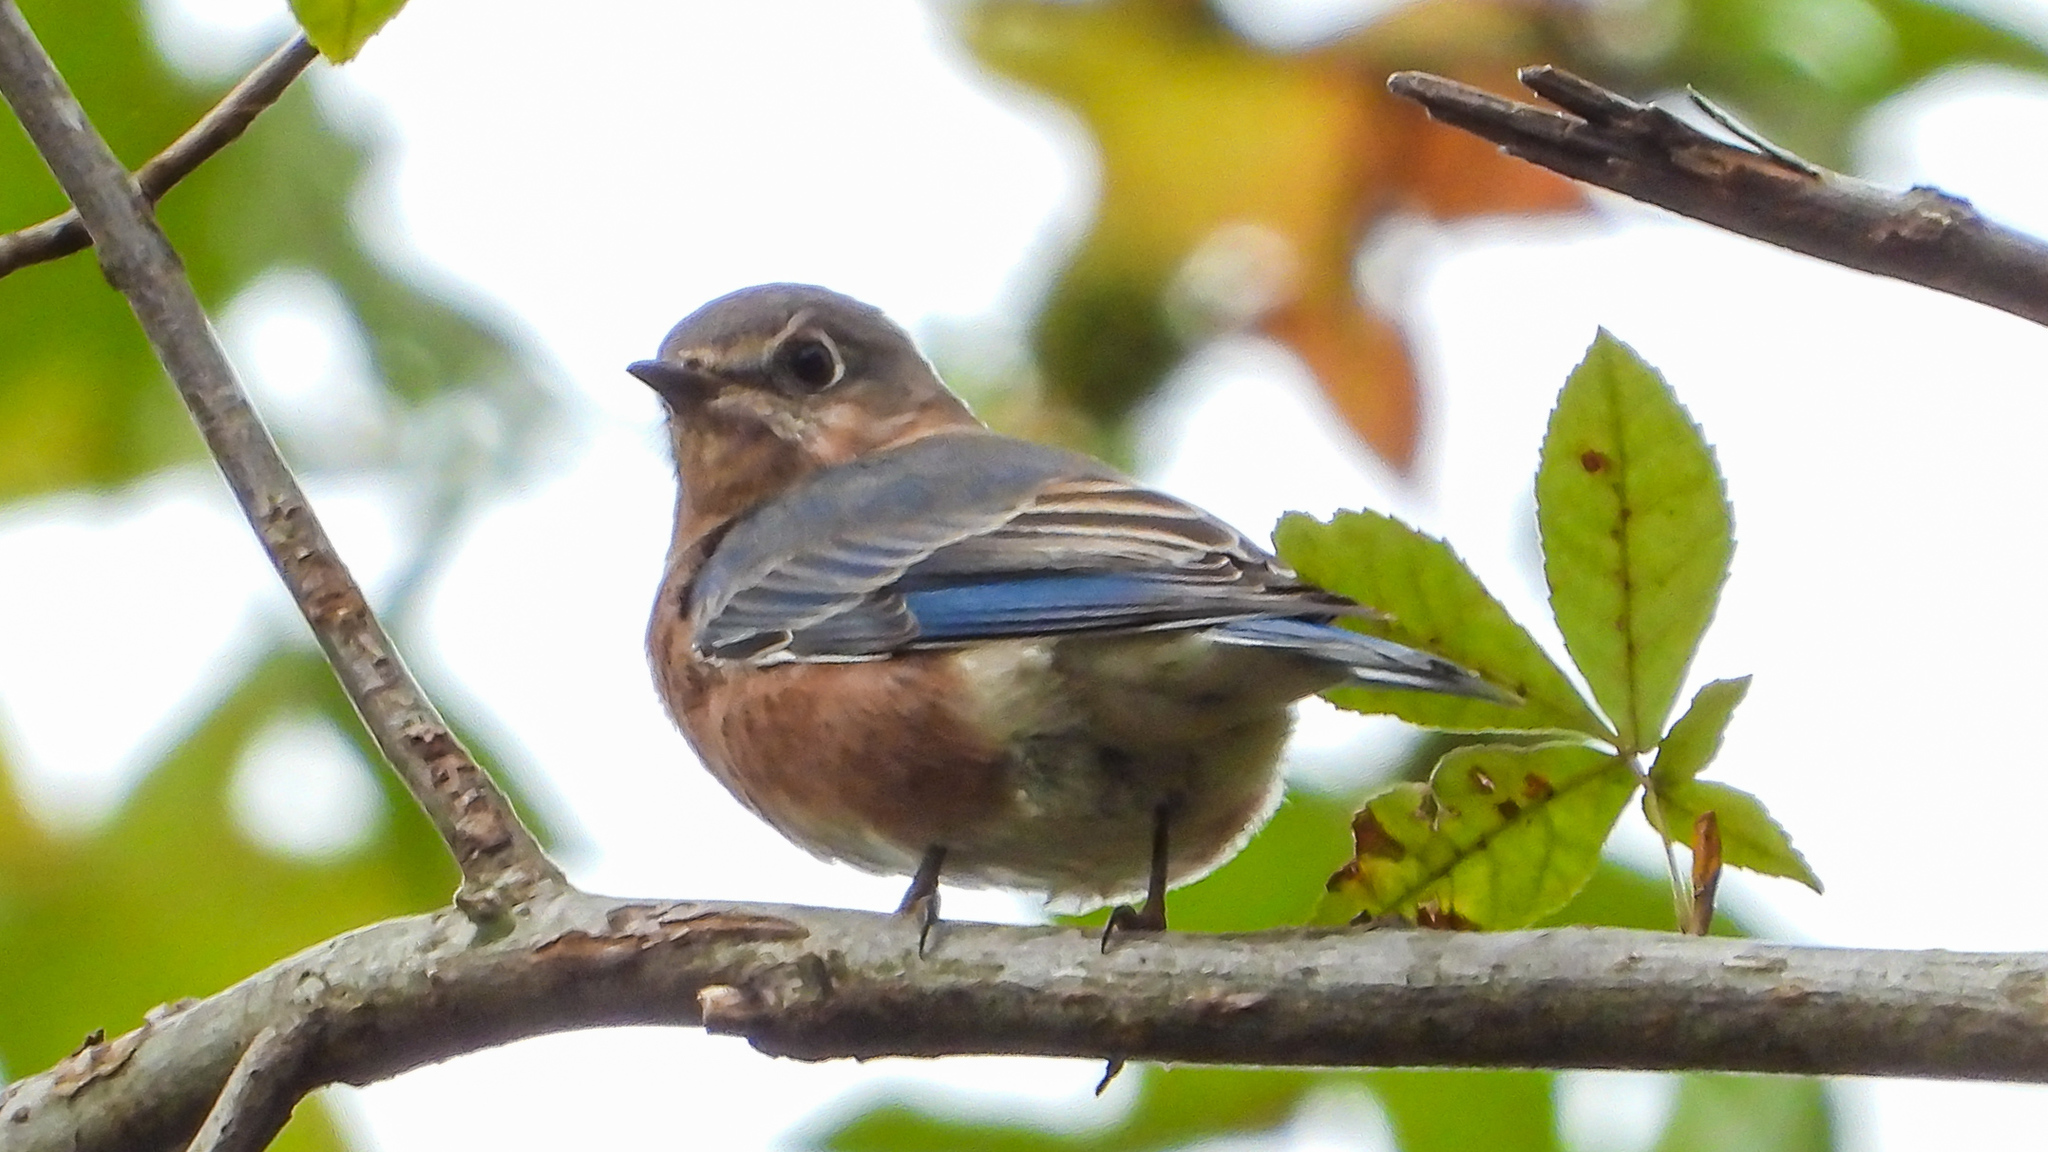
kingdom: Animalia
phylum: Chordata
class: Aves
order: Passeriformes
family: Turdidae
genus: Sialia
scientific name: Sialia sialis
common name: Eastern bluebird
